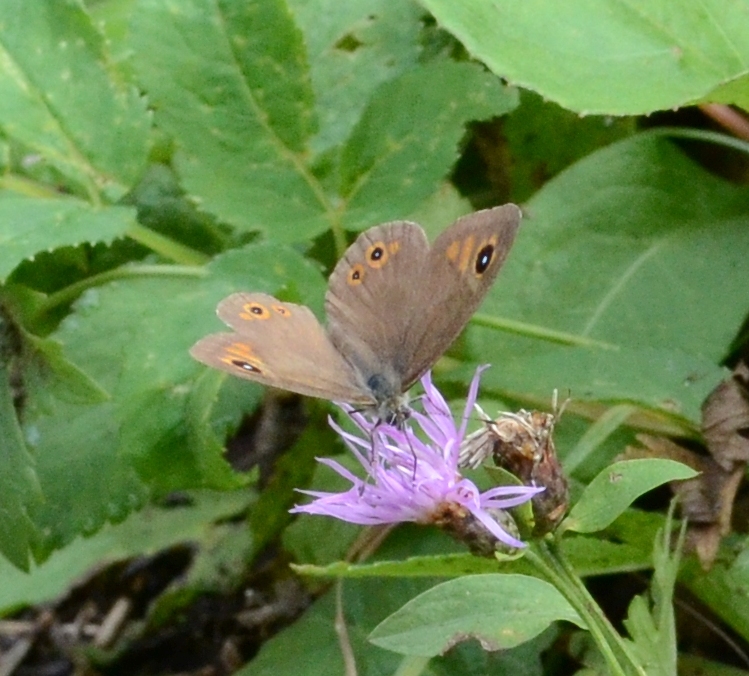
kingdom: Animalia
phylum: Arthropoda
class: Insecta
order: Lepidoptera
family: Nymphalidae
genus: Pararge
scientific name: Pararge Lasiommata maera
